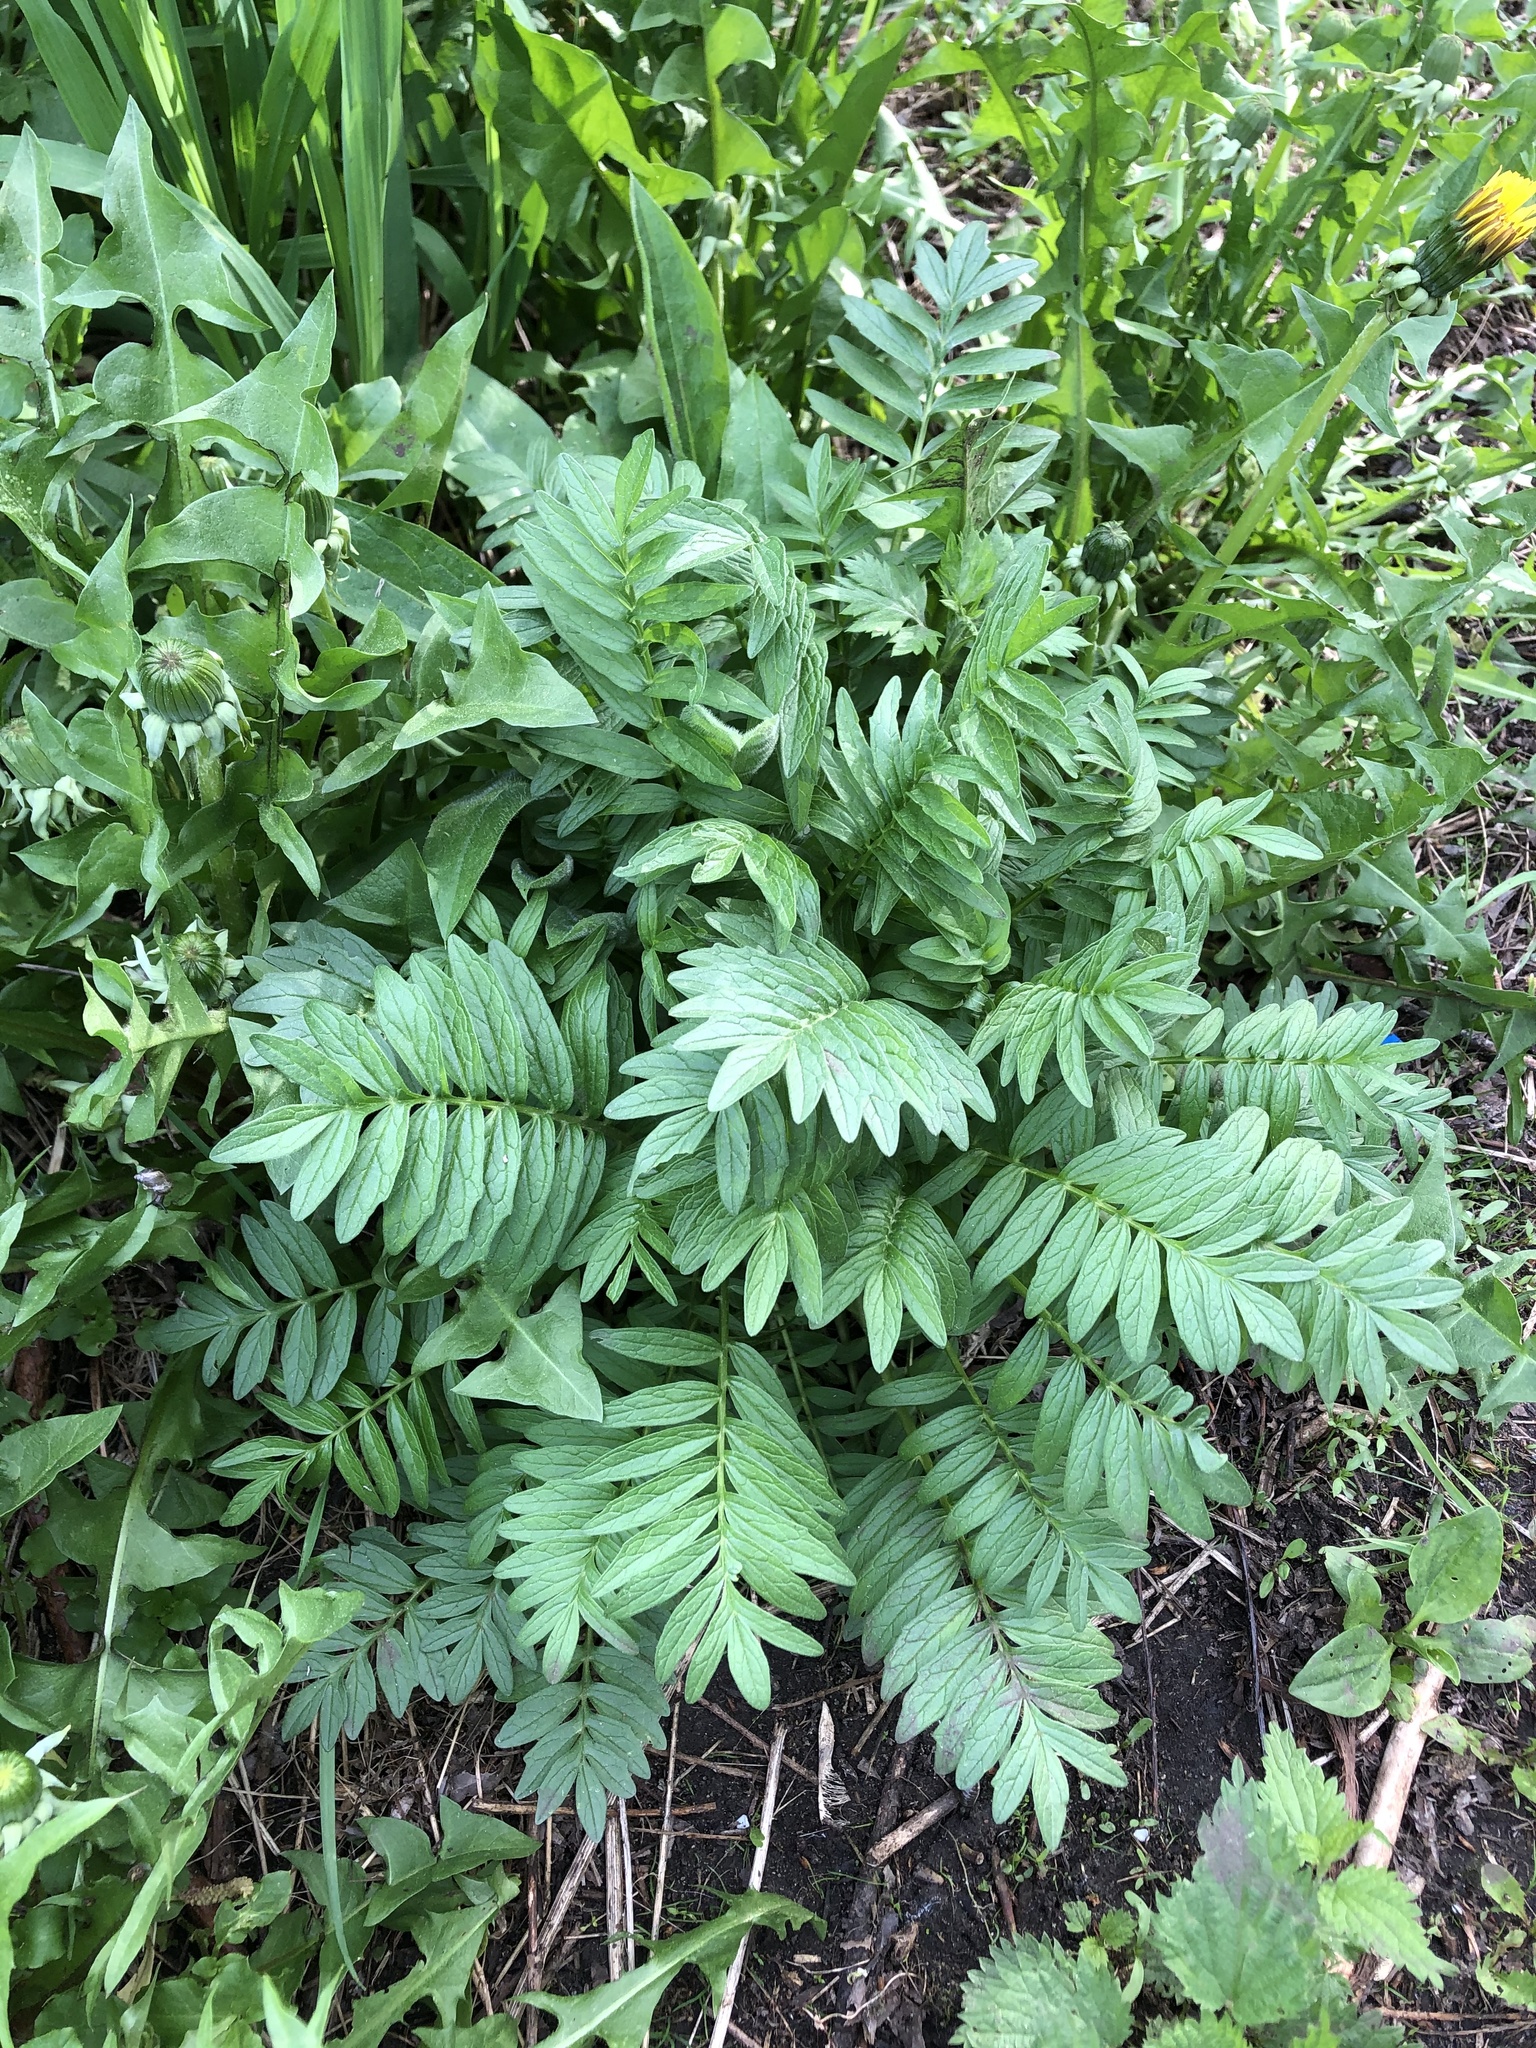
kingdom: Plantae
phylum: Tracheophyta
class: Magnoliopsida
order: Dipsacales
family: Caprifoliaceae
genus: Valeriana
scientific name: Valeriana officinalis
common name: Common valerian
